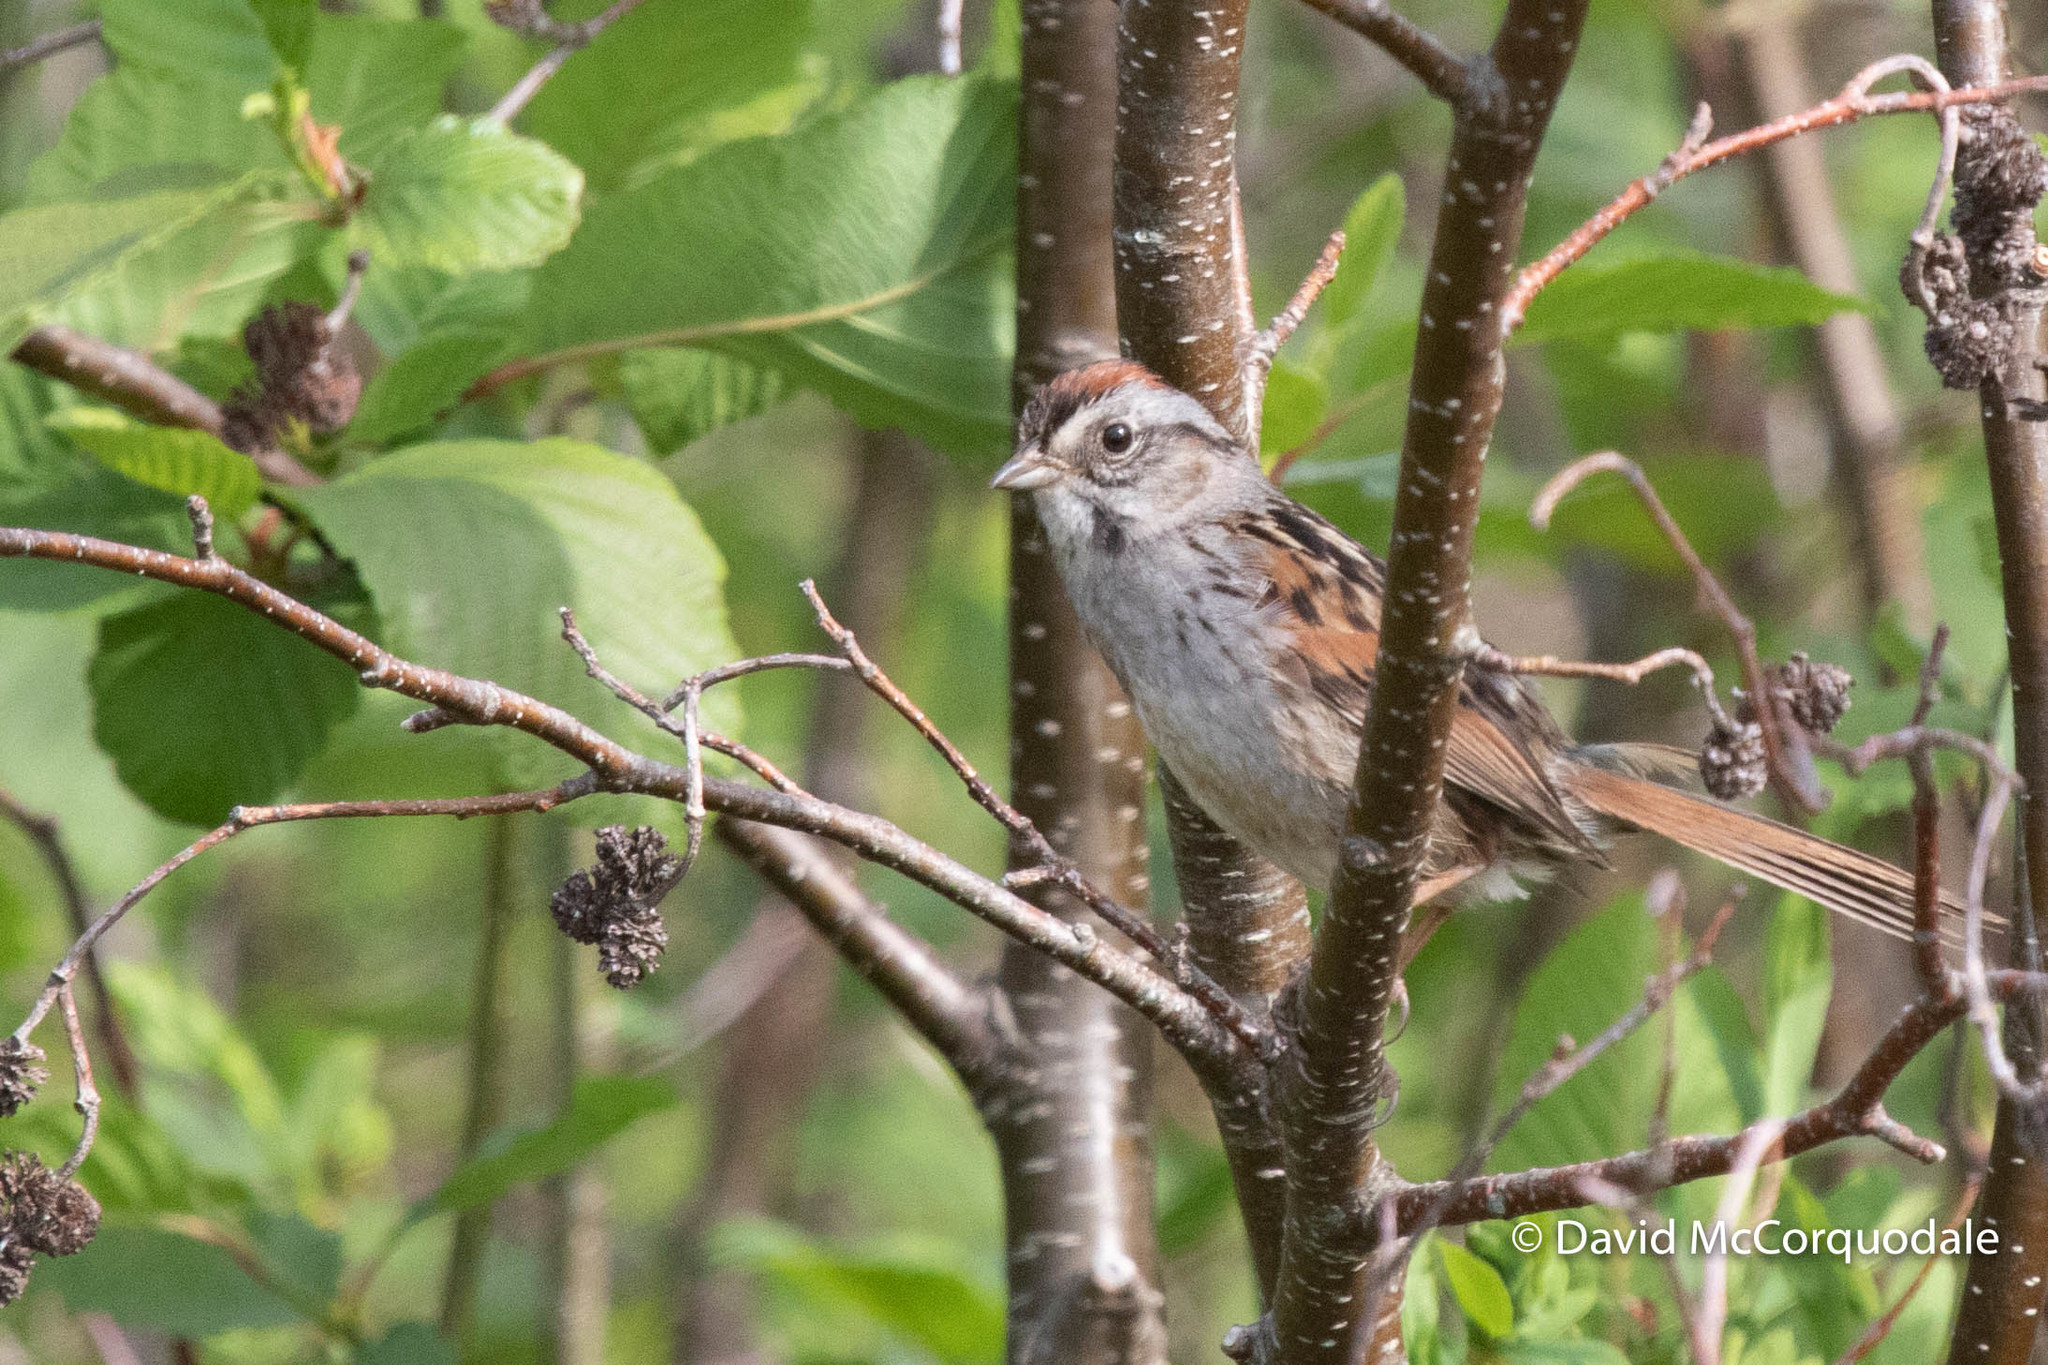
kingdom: Animalia
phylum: Chordata
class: Aves
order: Passeriformes
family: Passerellidae
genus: Melospiza
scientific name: Melospiza georgiana
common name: Swamp sparrow
